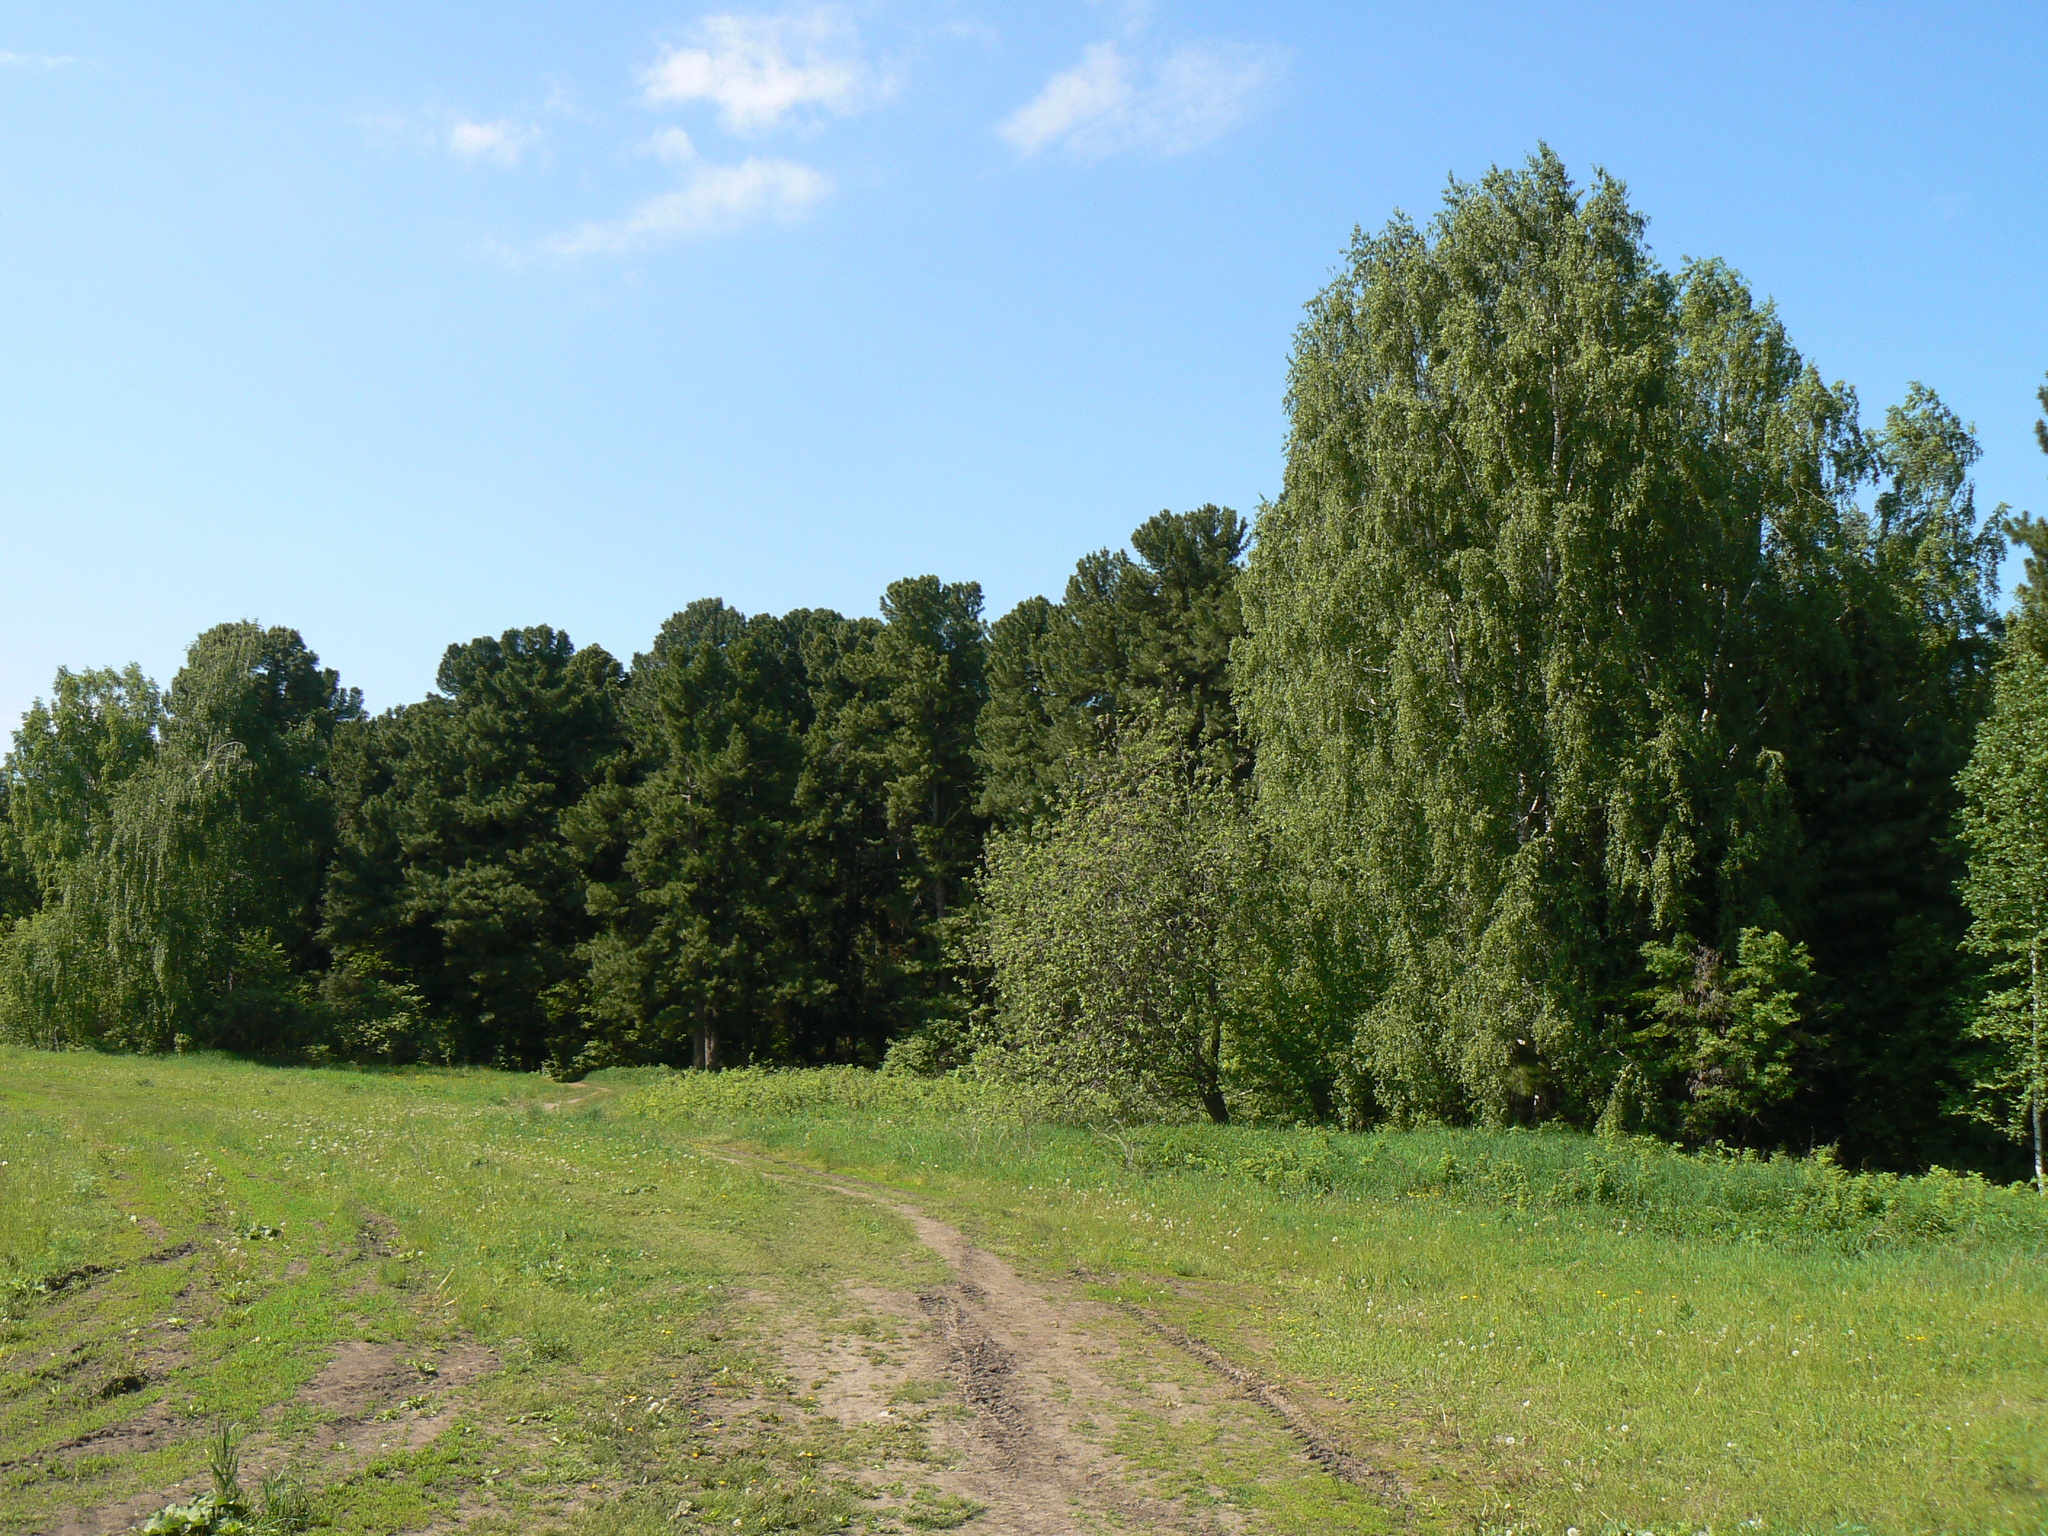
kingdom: Plantae
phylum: Tracheophyta
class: Pinopsida
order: Pinales
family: Pinaceae
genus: Pinus
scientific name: Pinus sibirica
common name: Siberian pine
